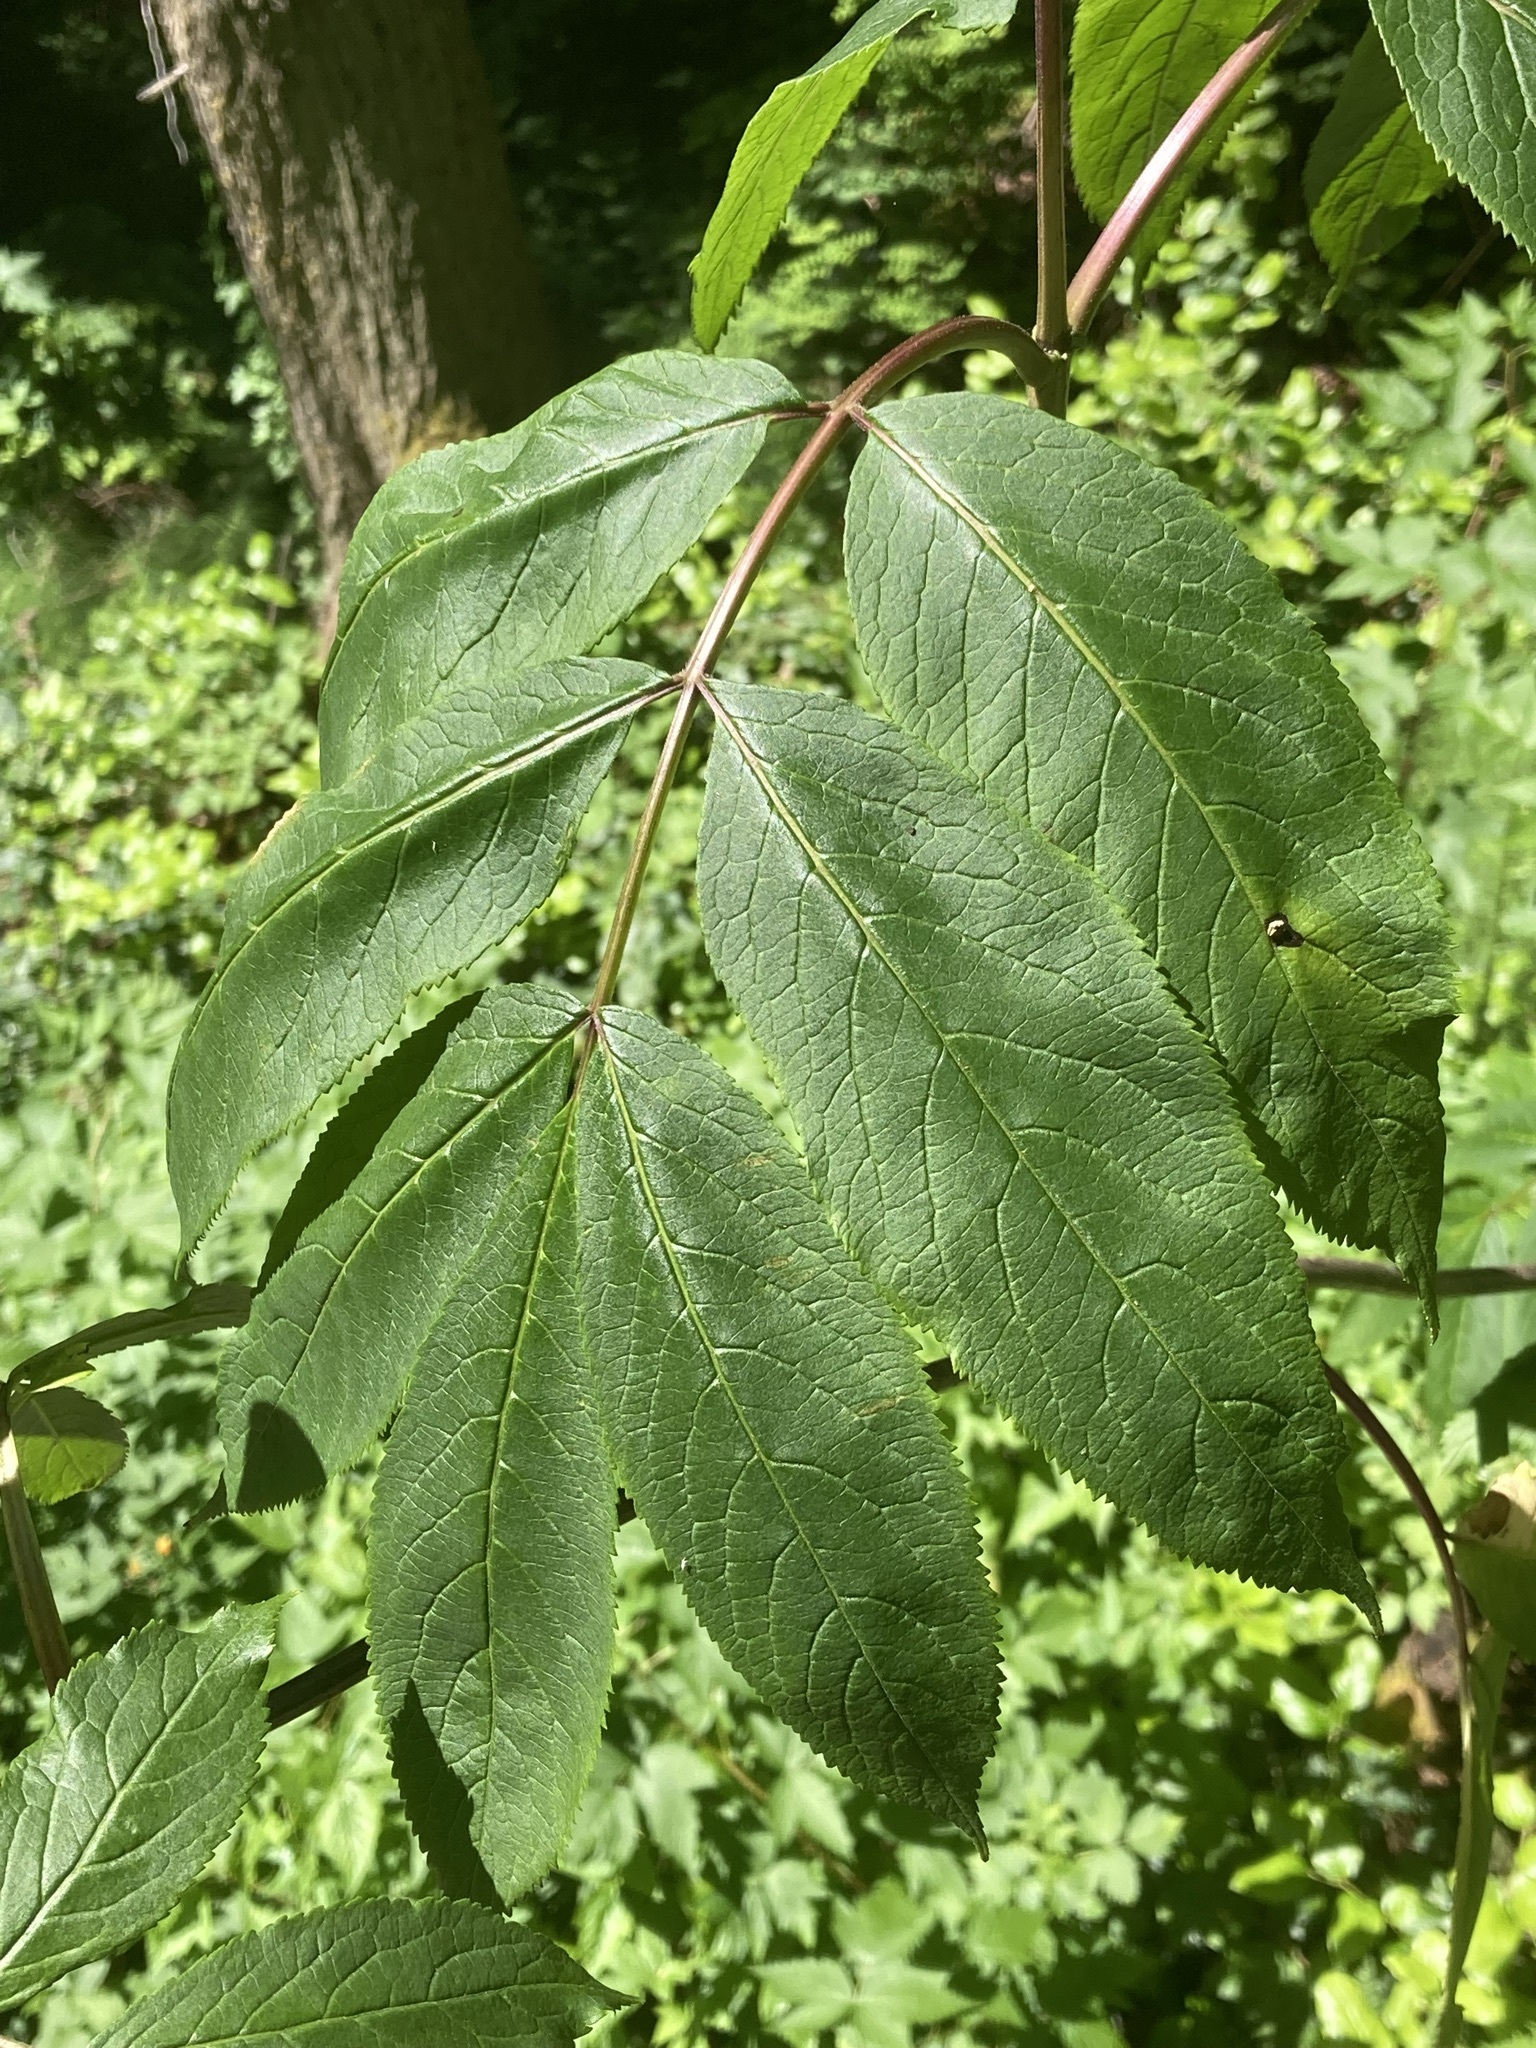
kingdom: Plantae
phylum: Tracheophyta
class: Magnoliopsida
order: Dipsacales
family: Viburnaceae
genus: Sambucus
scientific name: Sambucus racemosa
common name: Red-berried elder
